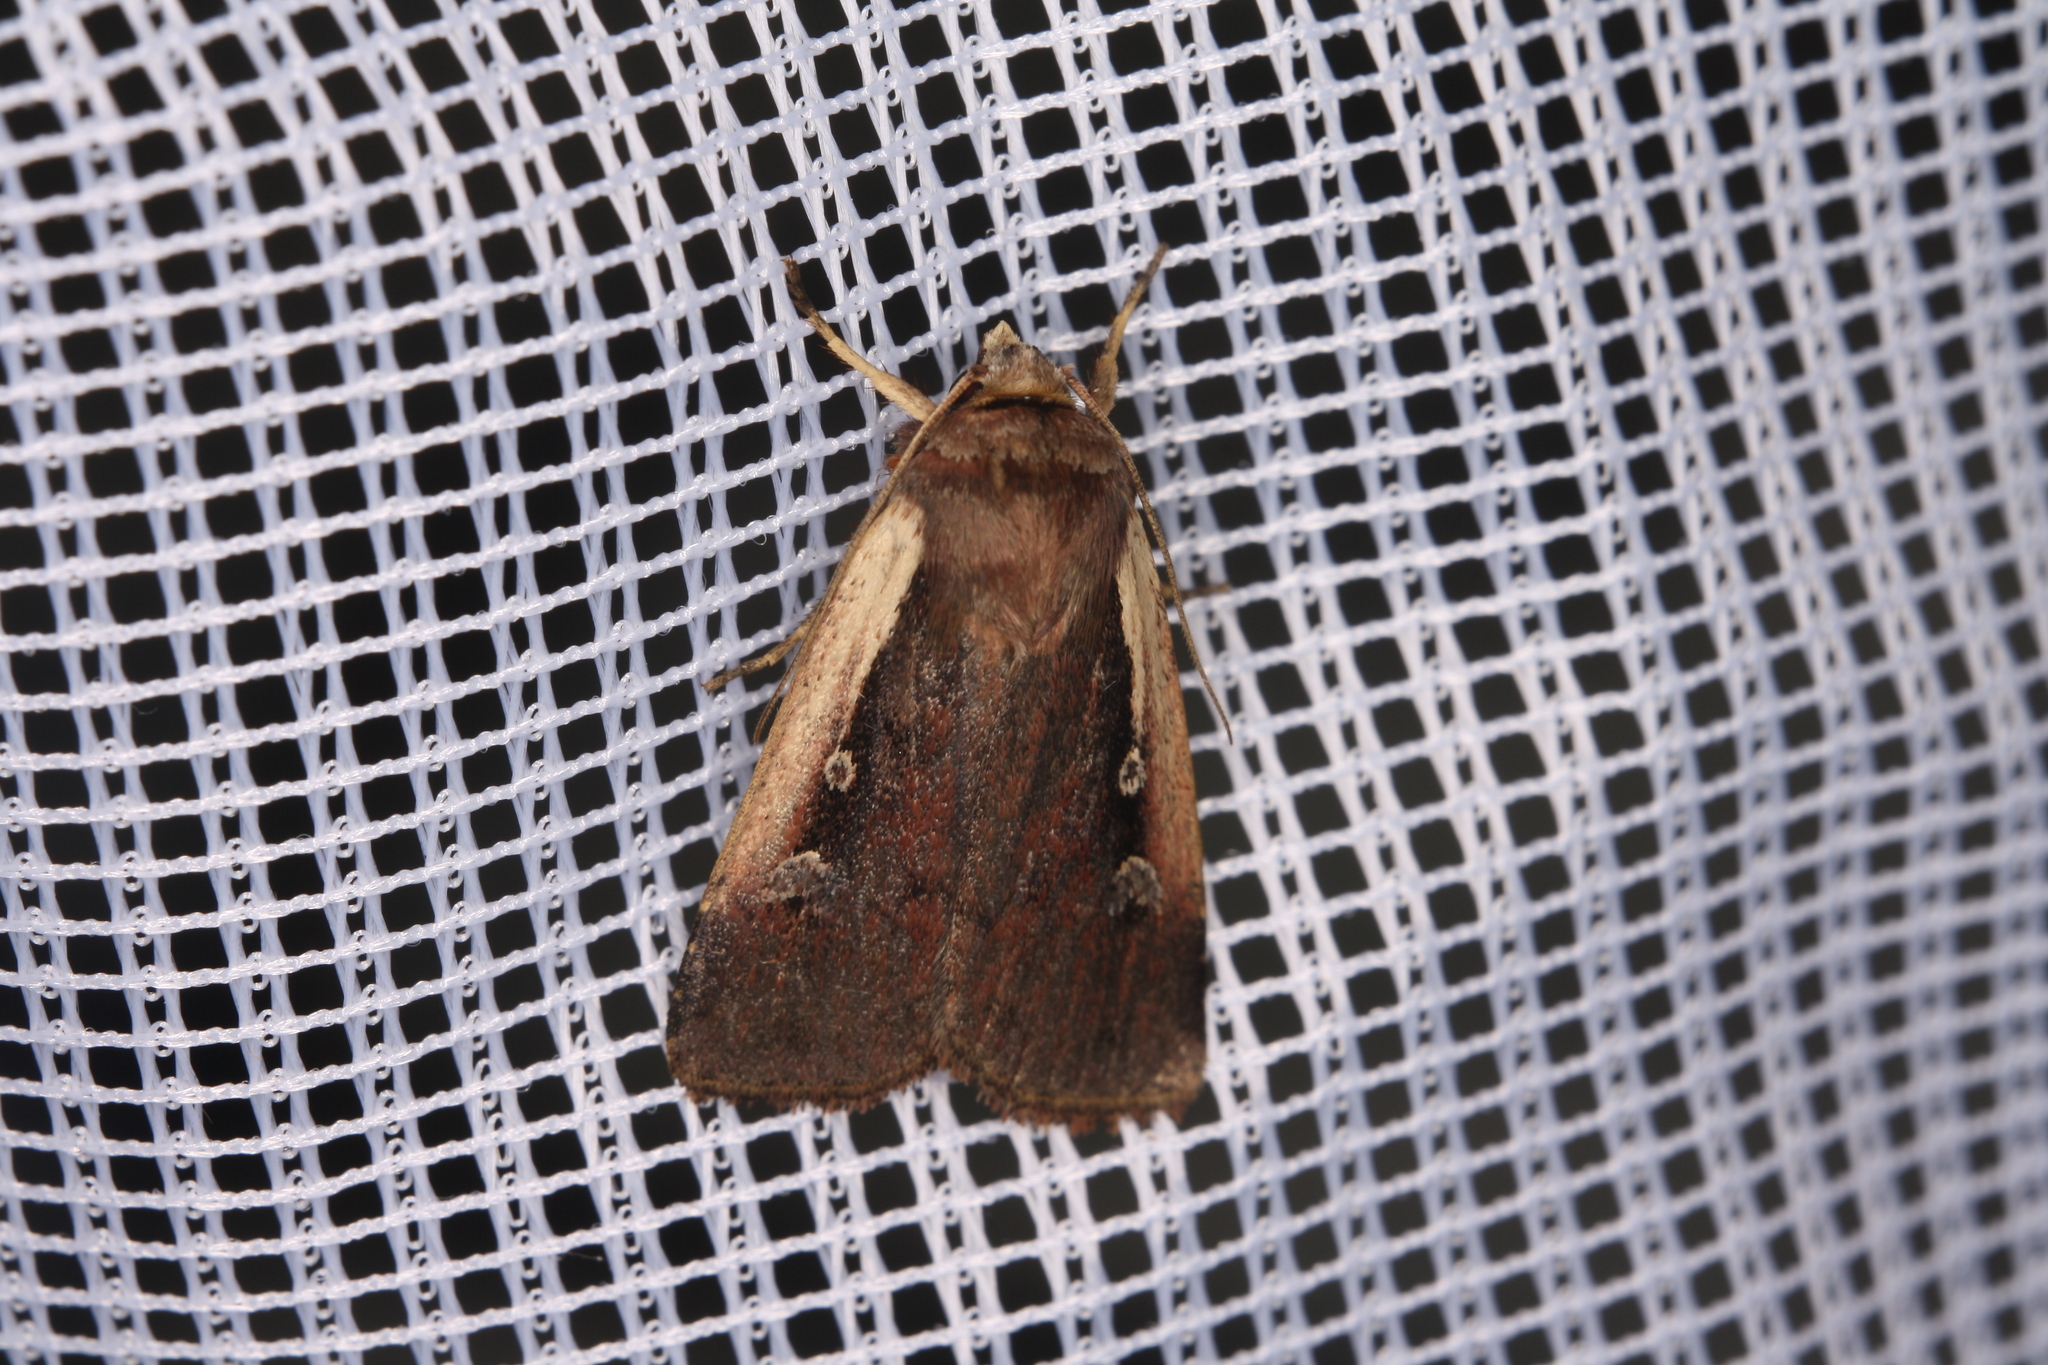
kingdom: Animalia
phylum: Arthropoda
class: Insecta
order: Lepidoptera
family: Noctuidae
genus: Ochropleura
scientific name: Ochropleura plecta
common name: Flame shoulder
